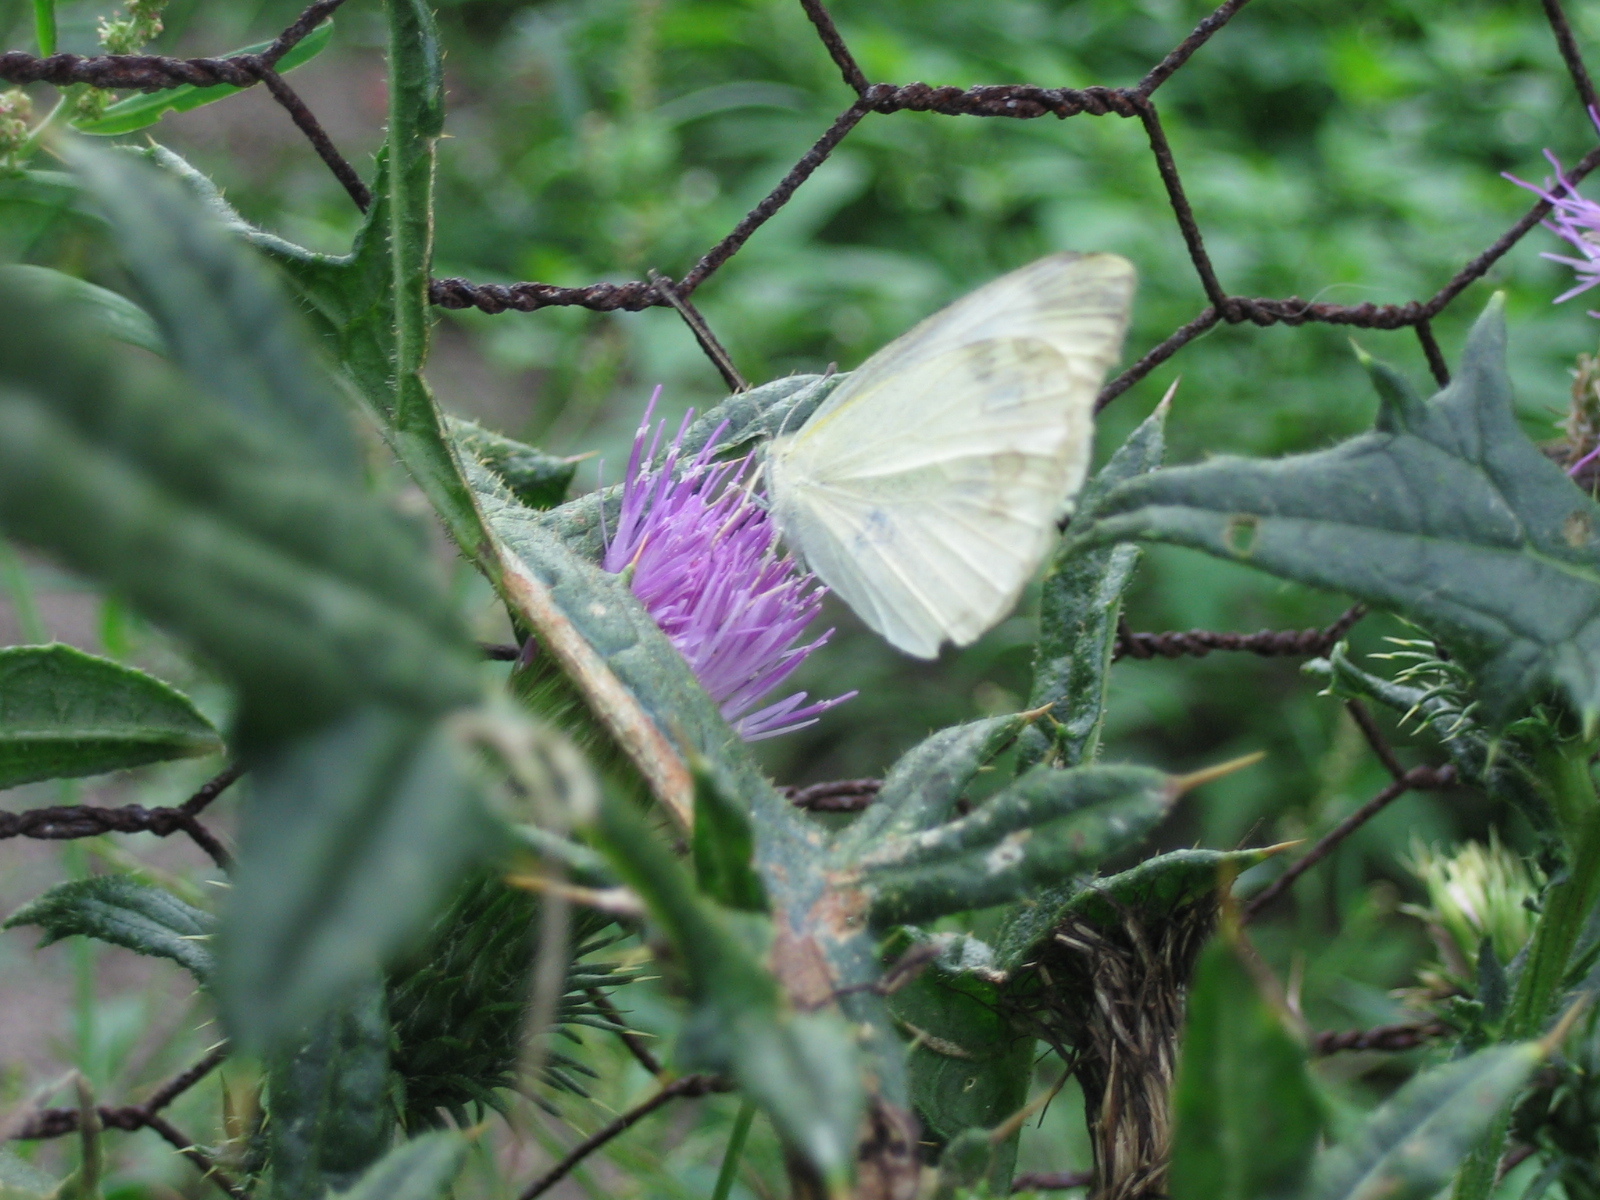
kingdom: Animalia
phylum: Arthropoda
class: Insecta
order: Lepidoptera
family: Pieridae
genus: Pieris
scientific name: Pieris rapae
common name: Small white
